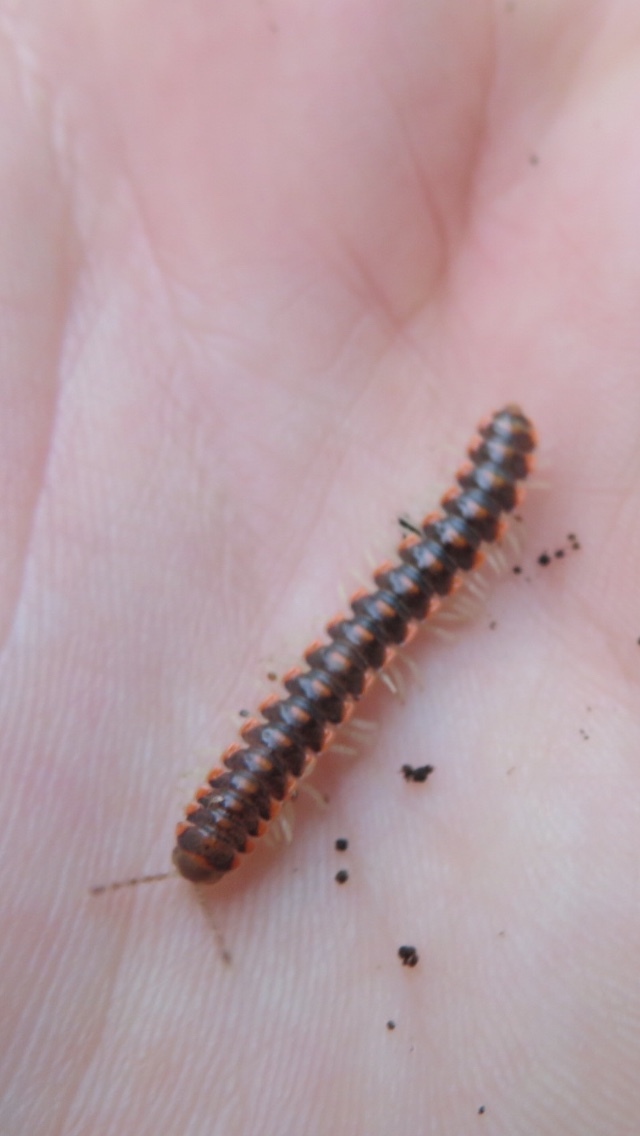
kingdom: Animalia
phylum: Arthropoda
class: Diplopoda
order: Polydesmida
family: Xystodesmidae
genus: Euryurus
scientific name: Euryurus evides
